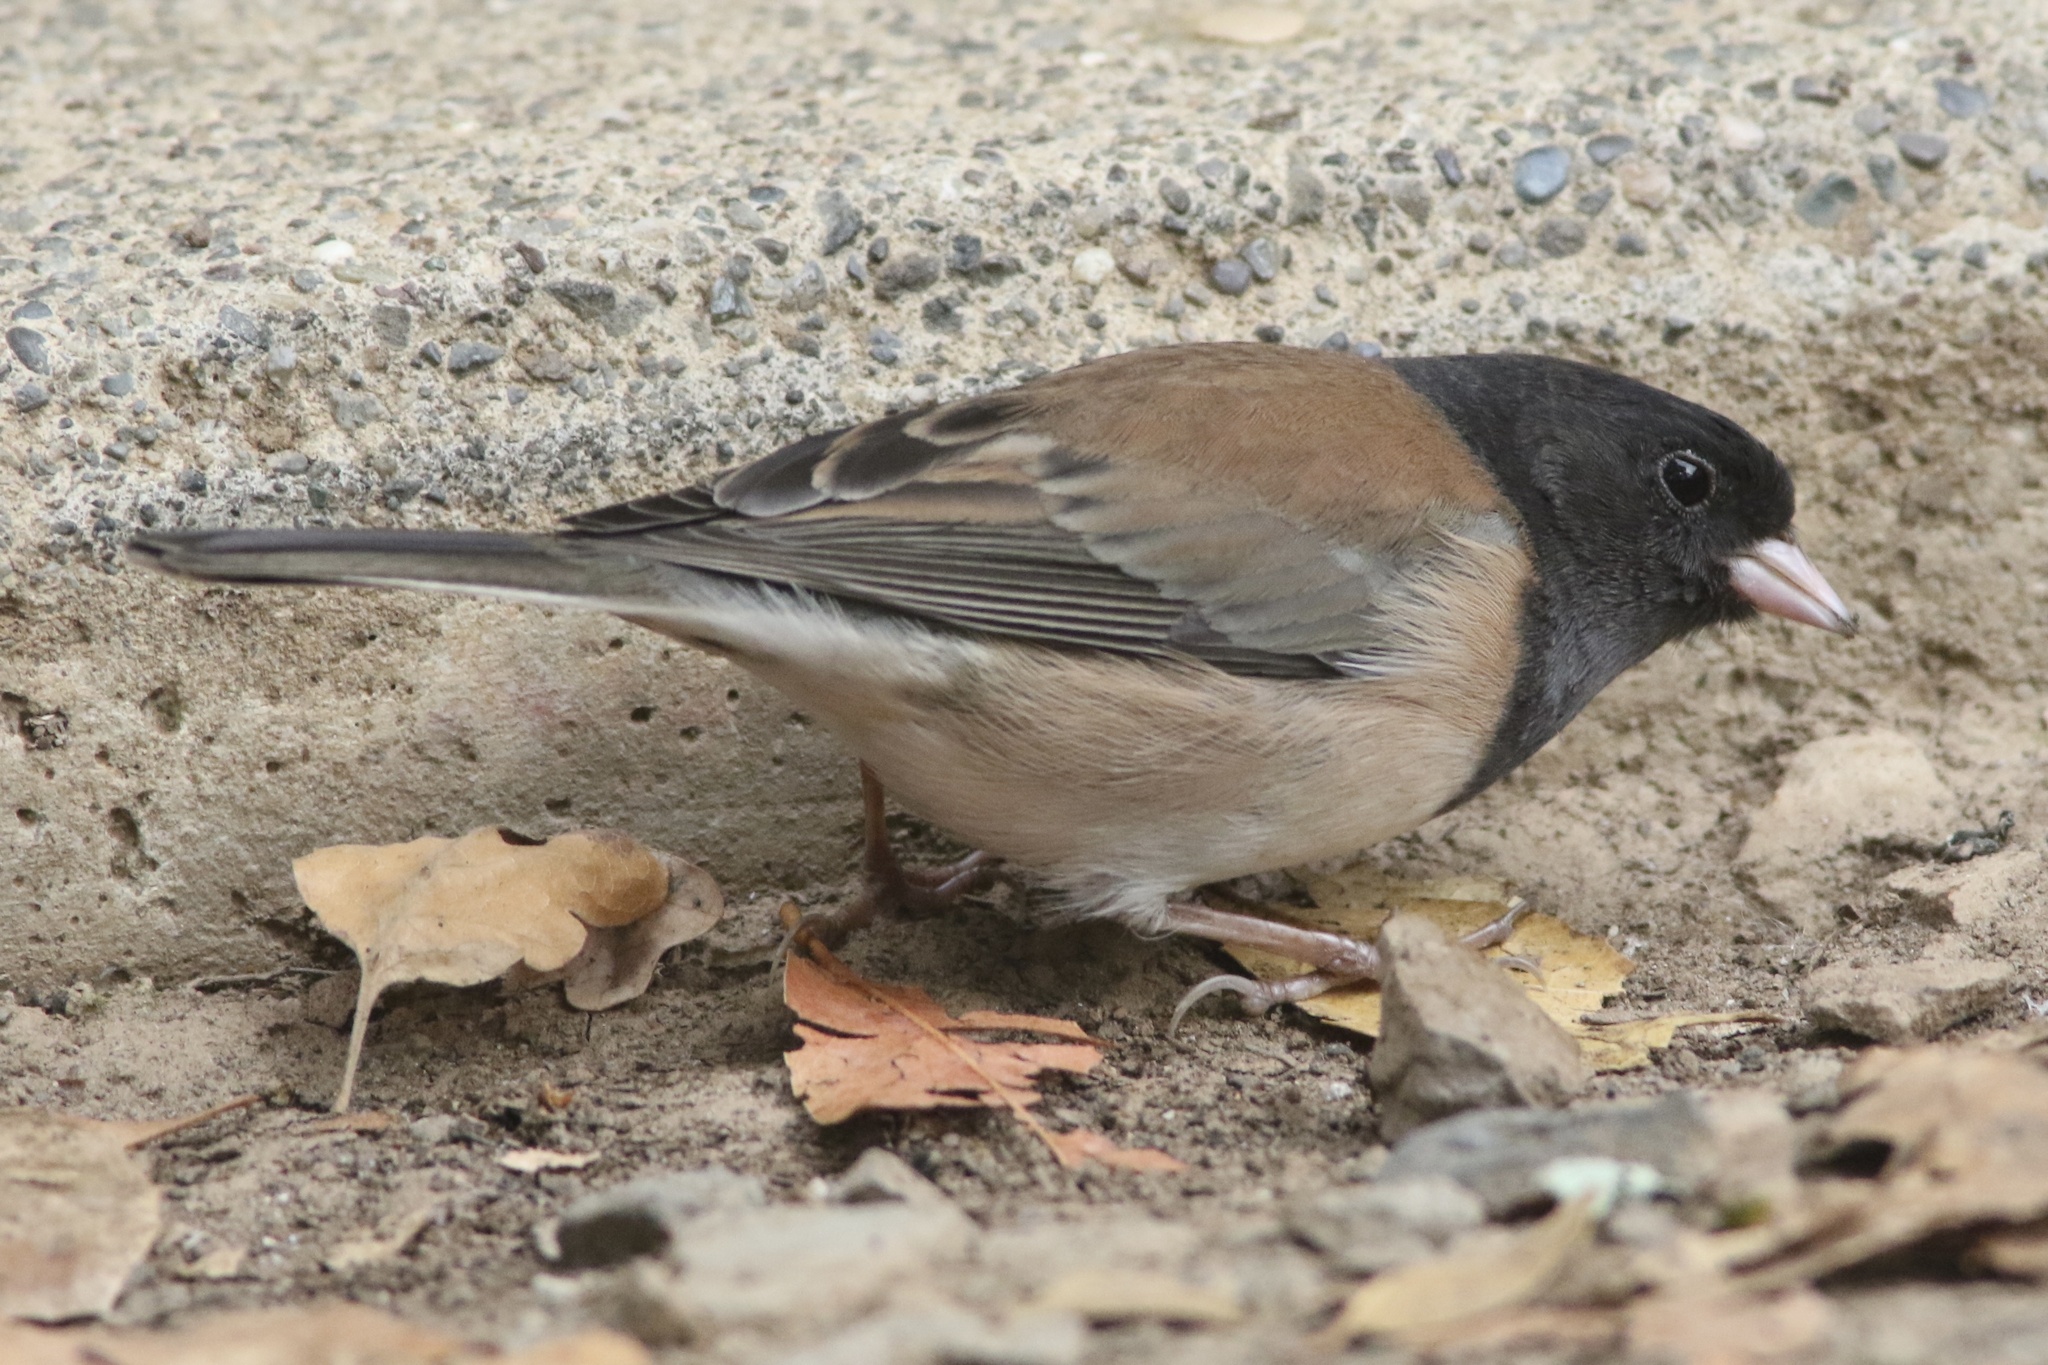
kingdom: Animalia
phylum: Chordata
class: Aves
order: Passeriformes
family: Passerellidae
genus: Junco
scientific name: Junco hyemalis
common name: Dark-eyed junco
